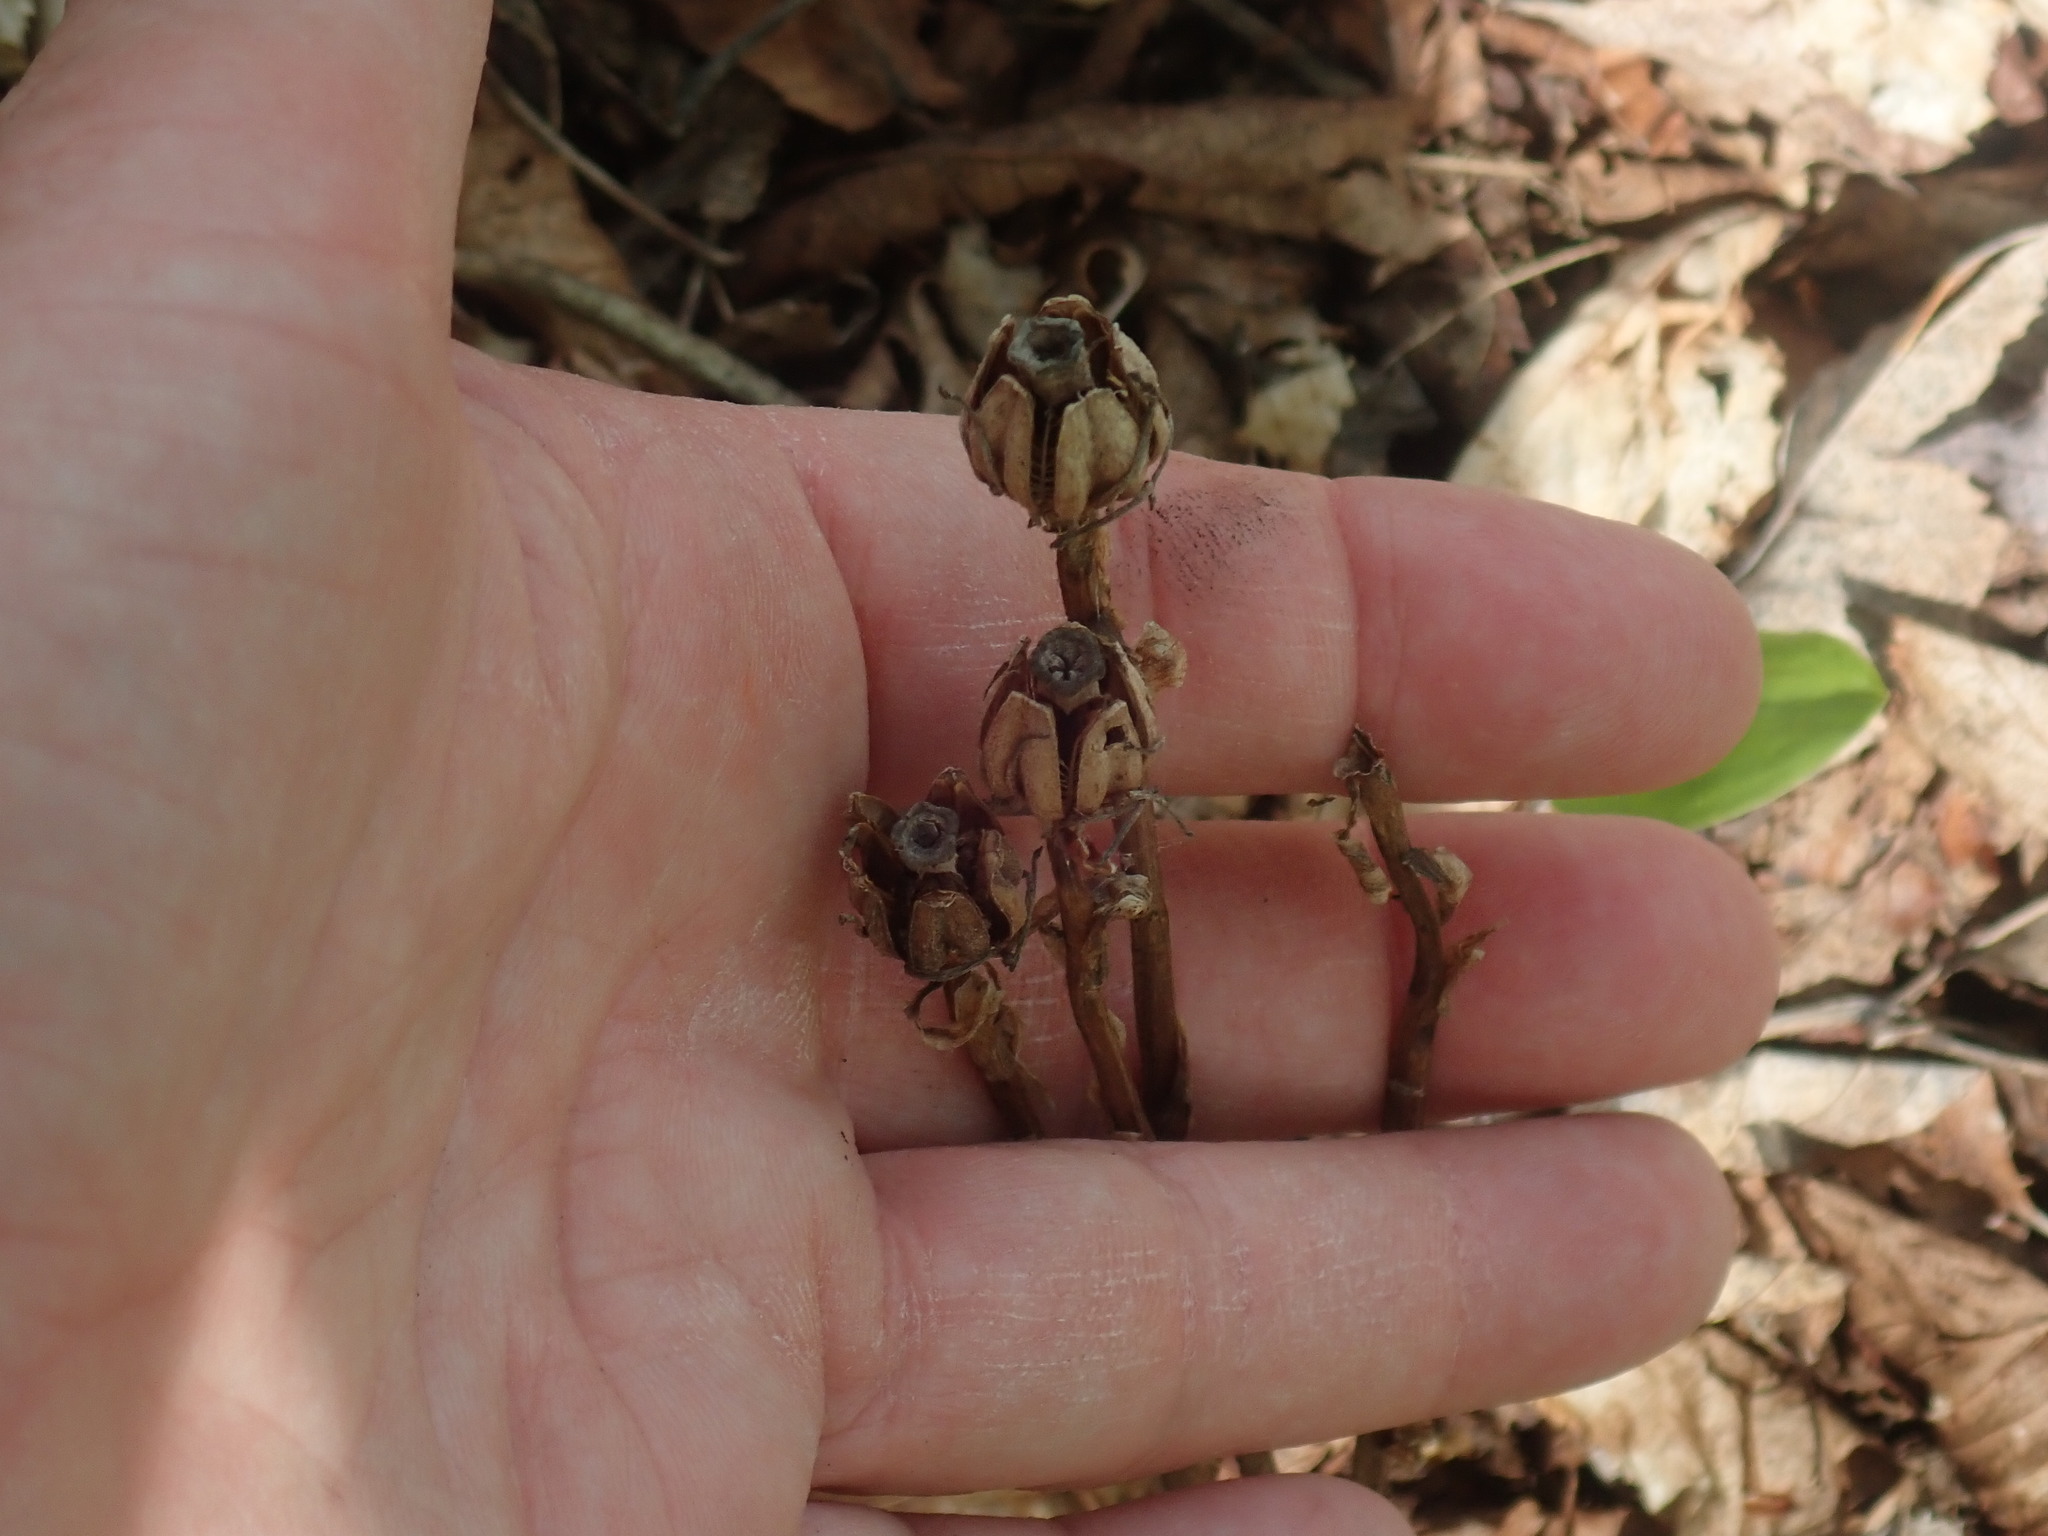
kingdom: Plantae
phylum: Tracheophyta
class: Magnoliopsida
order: Ericales
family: Ericaceae
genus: Monotropa
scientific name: Monotropa uniflora
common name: Convulsion root
